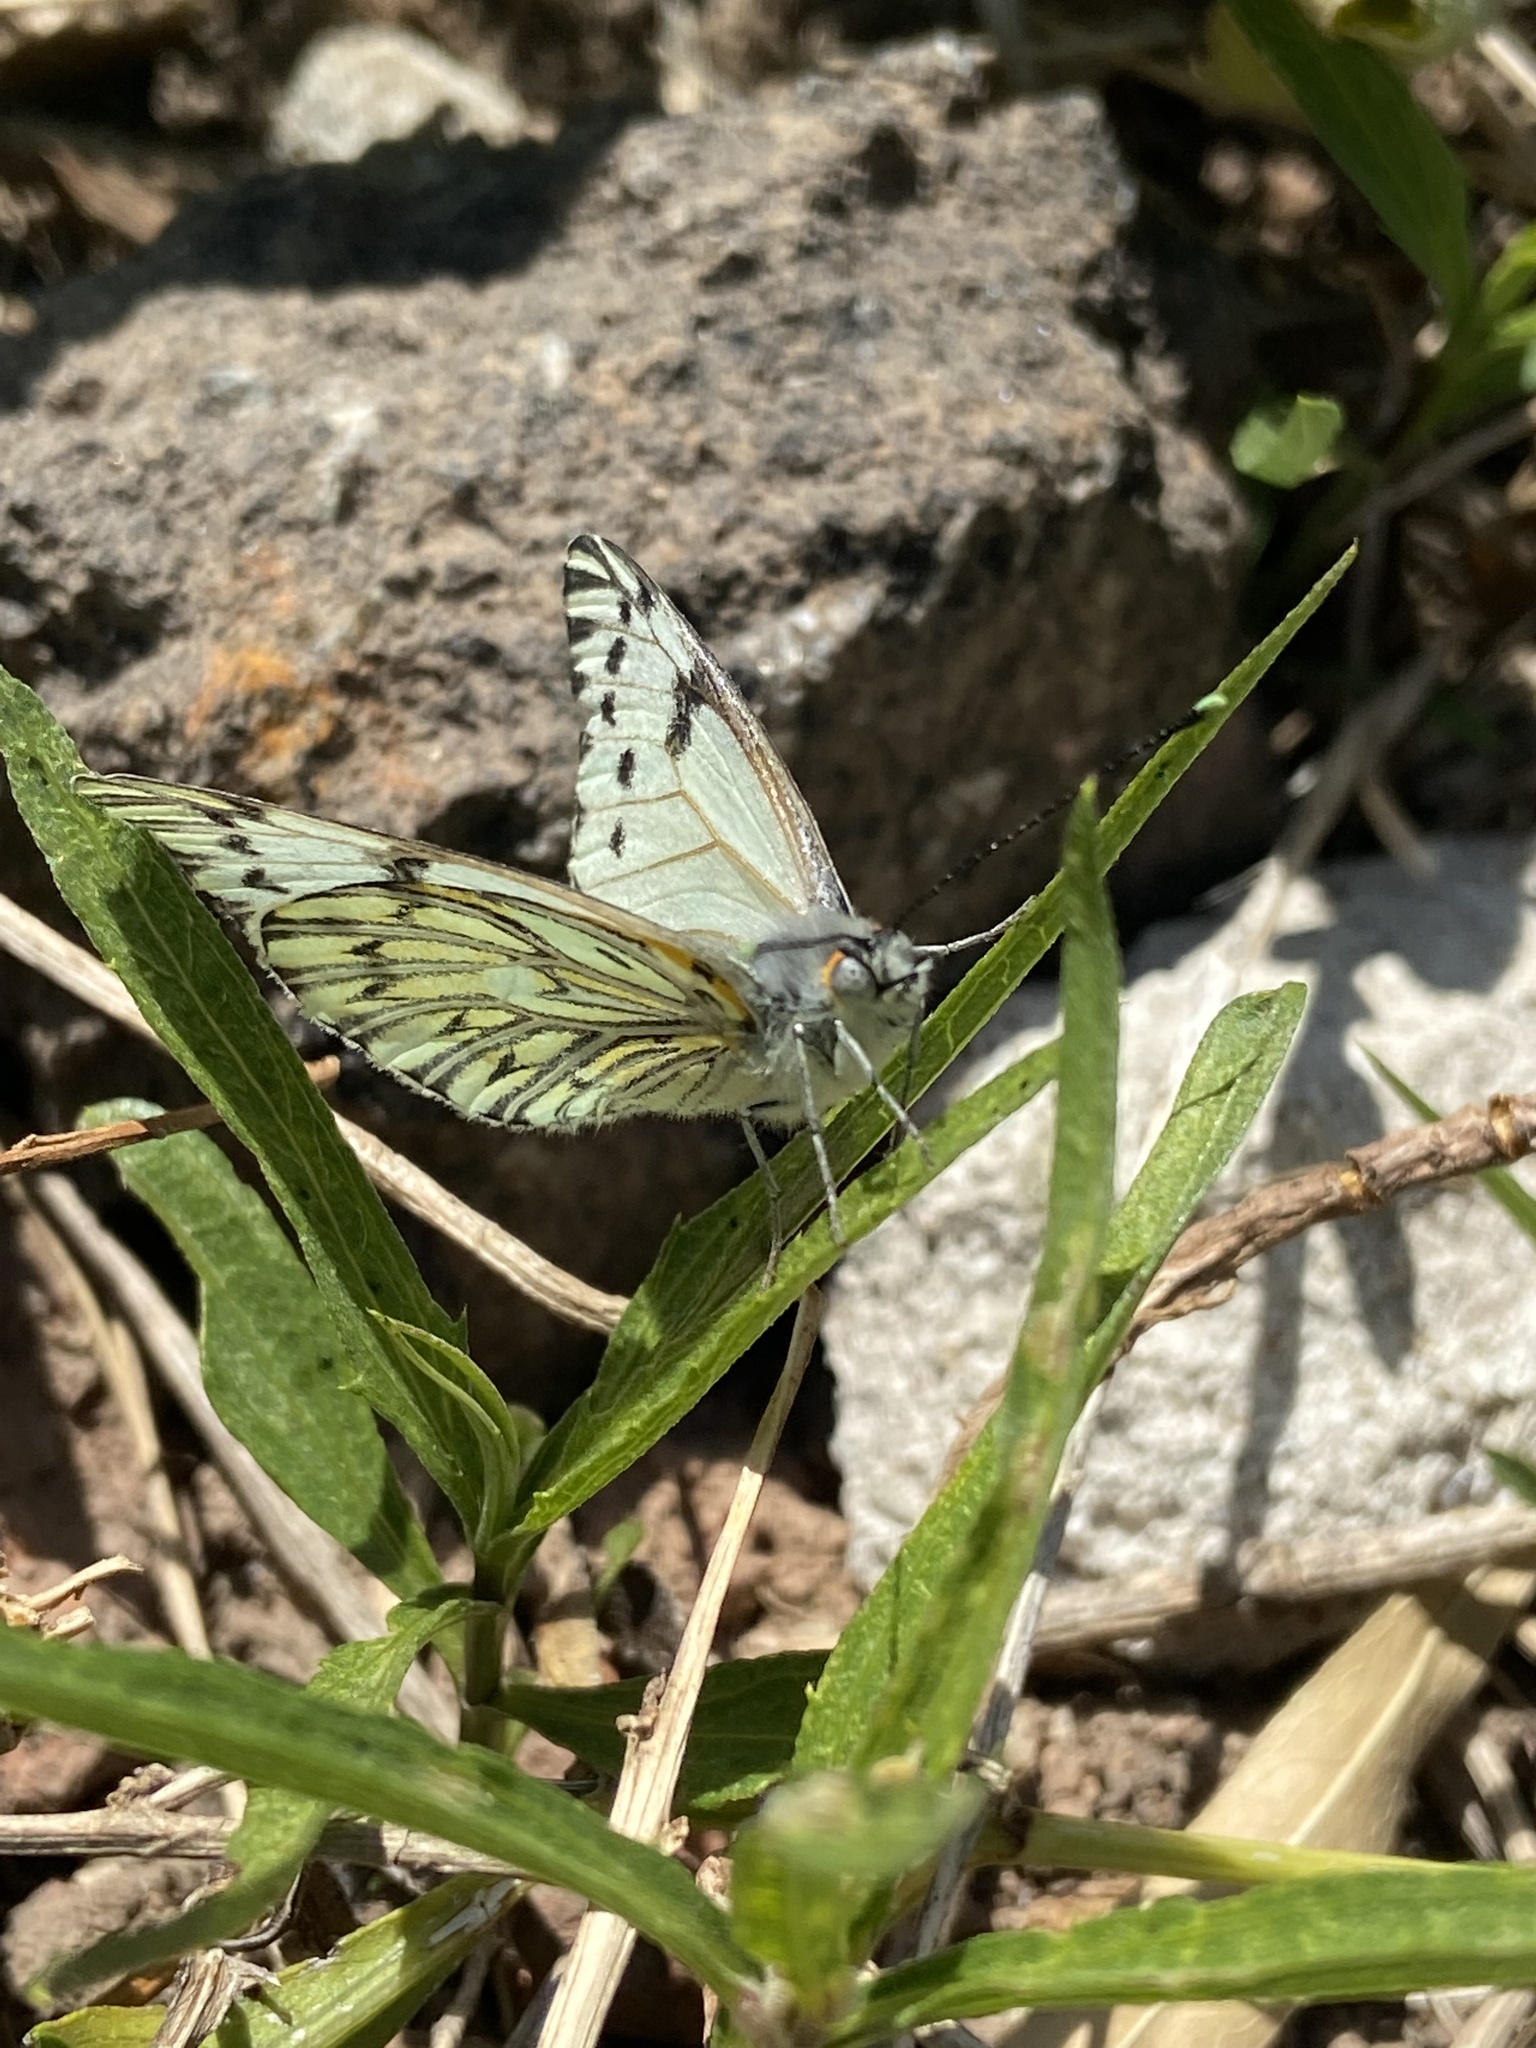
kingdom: Animalia
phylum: Arthropoda
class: Insecta
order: Lepidoptera
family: Pieridae
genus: Tatochila
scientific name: Tatochila autodice
